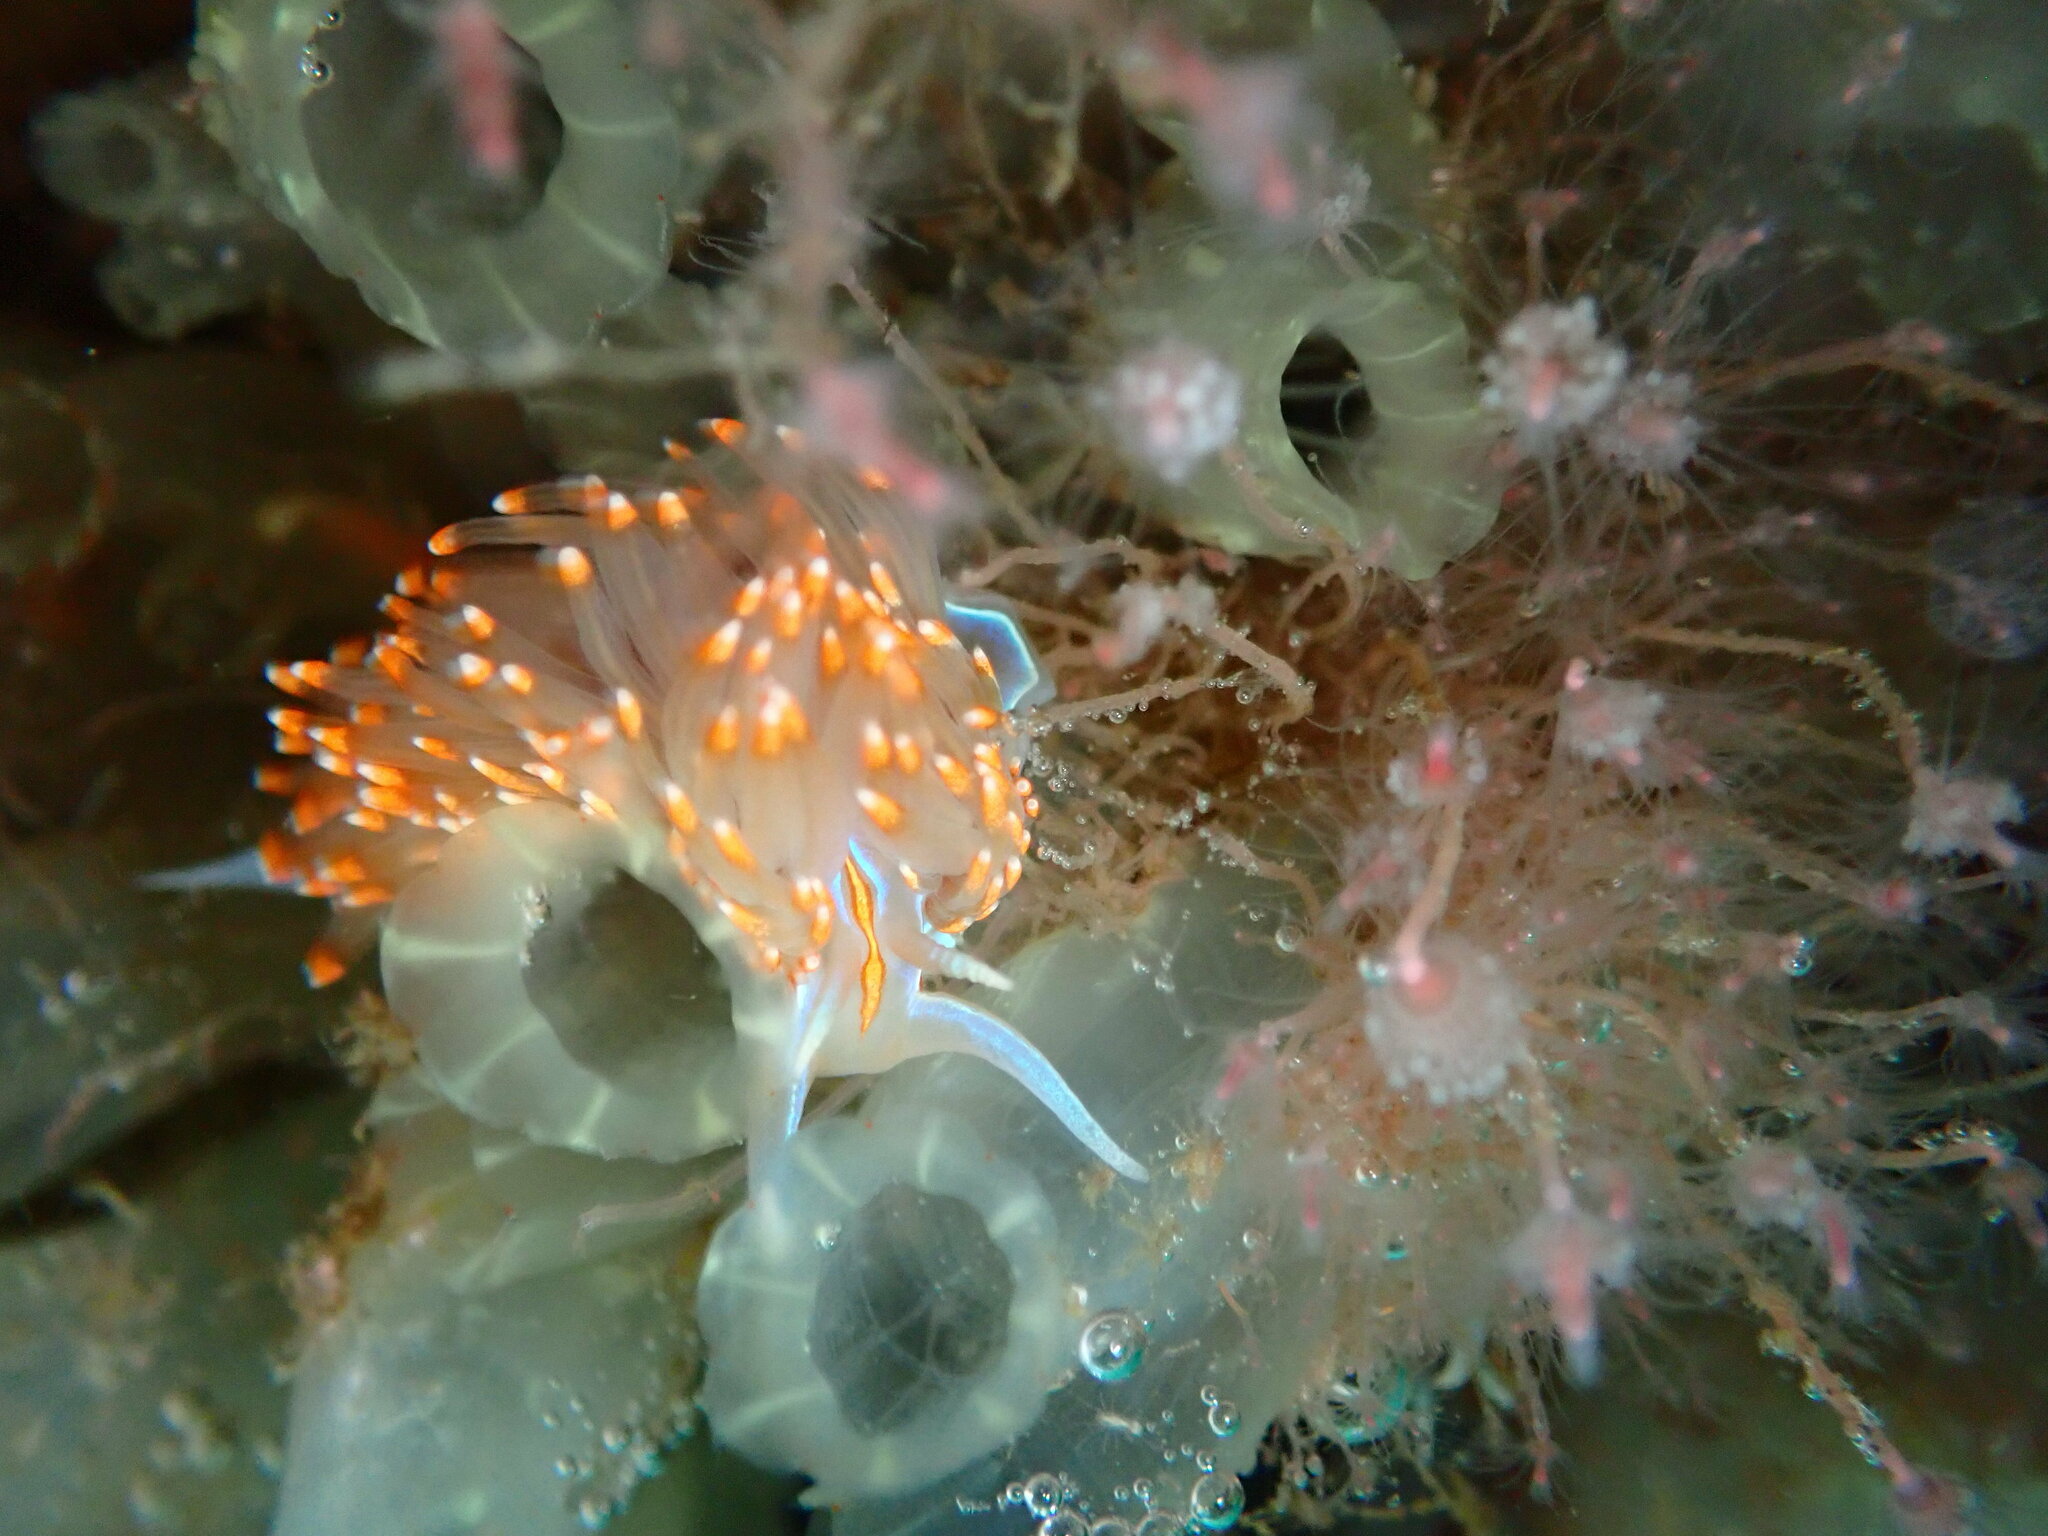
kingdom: Animalia
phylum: Mollusca
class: Gastropoda
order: Nudibranchia
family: Myrrhinidae
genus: Hermissenda
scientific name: Hermissenda opalescens
